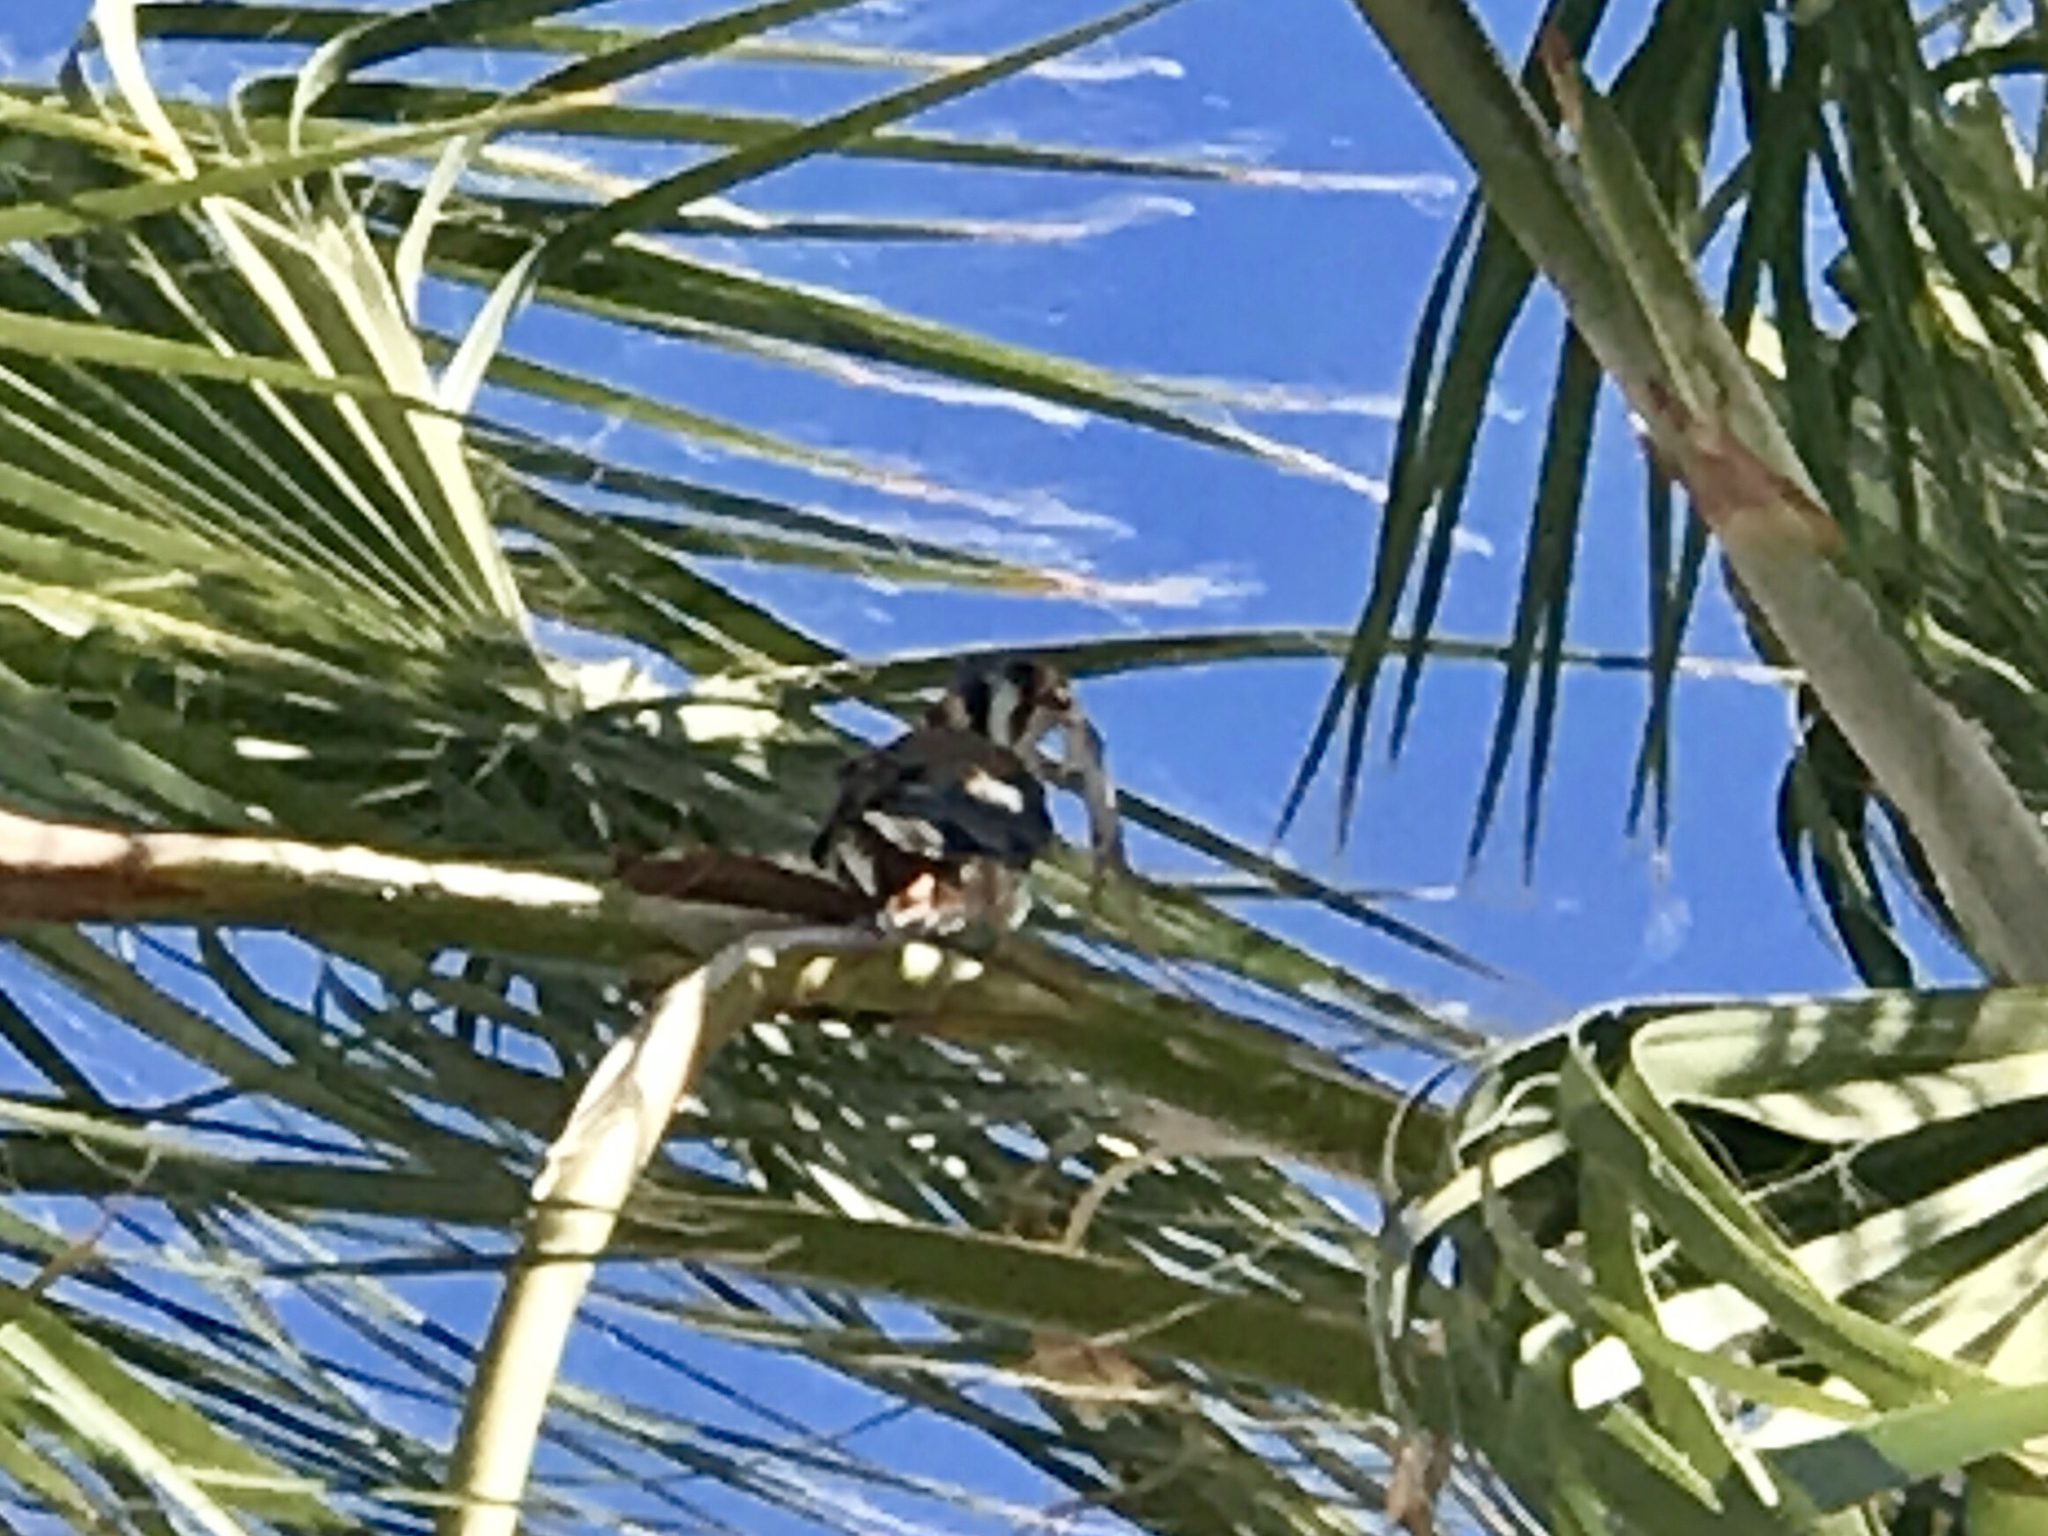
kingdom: Animalia
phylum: Chordata
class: Aves
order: Falconiformes
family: Falconidae
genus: Falco
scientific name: Falco sparverius
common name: American kestrel
